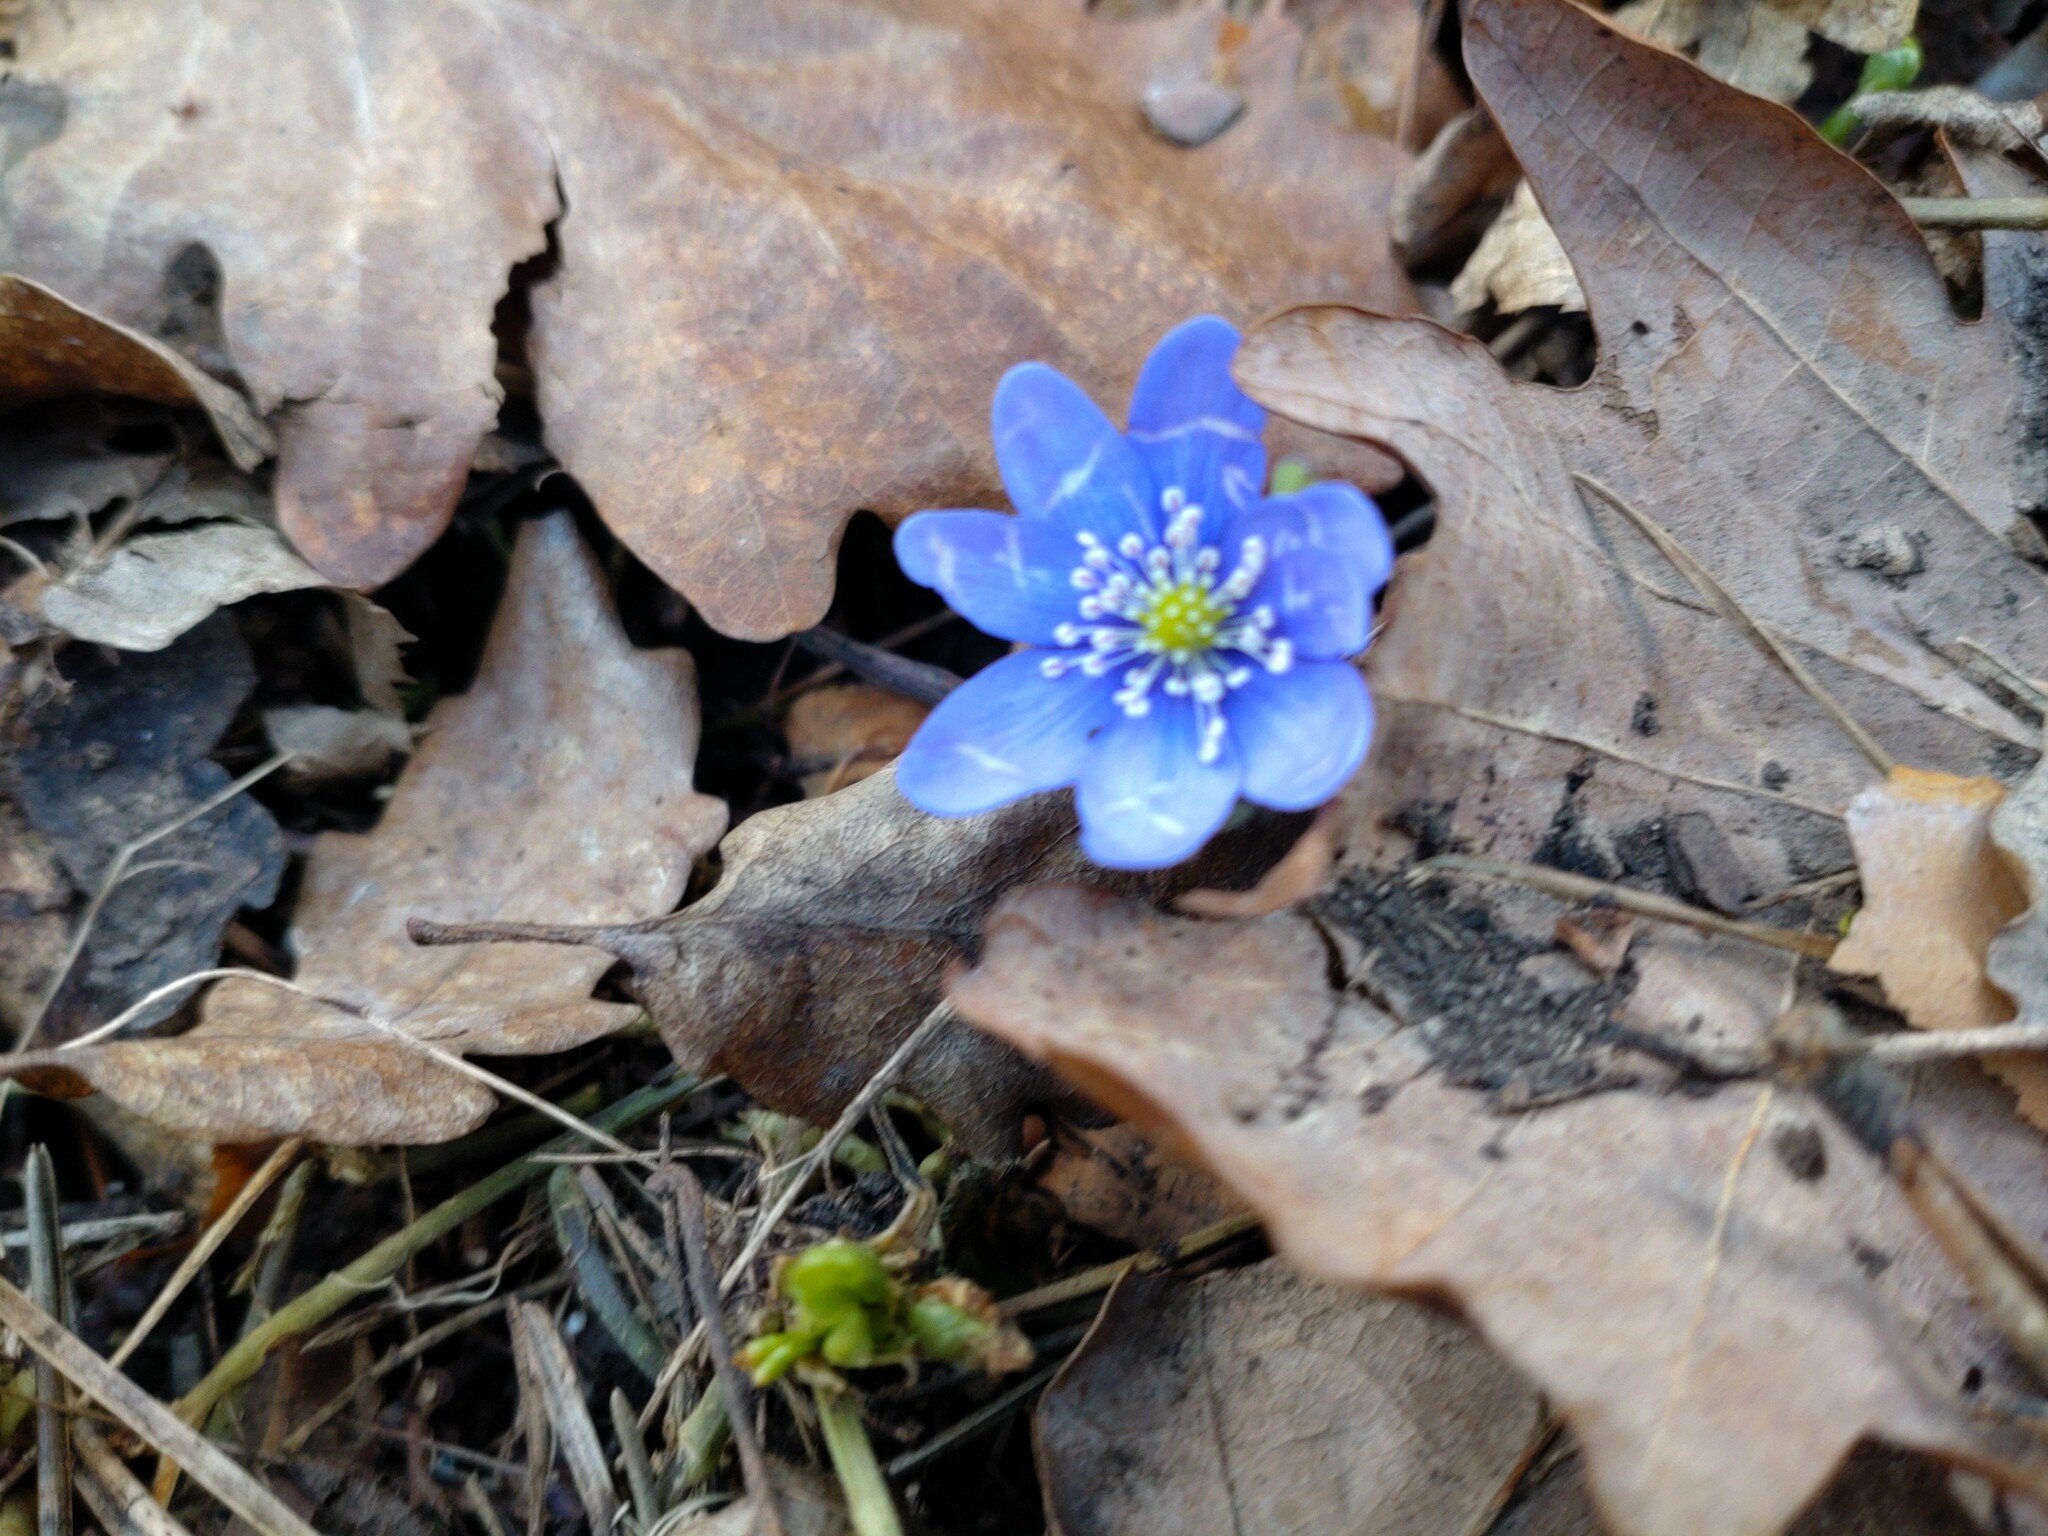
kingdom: Plantae
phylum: Tracheophyta
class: Magnoliopsida
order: Ranunculales
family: Ranunculaceae
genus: Hepatica
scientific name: Hepatica nobilis
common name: Liverleaf
